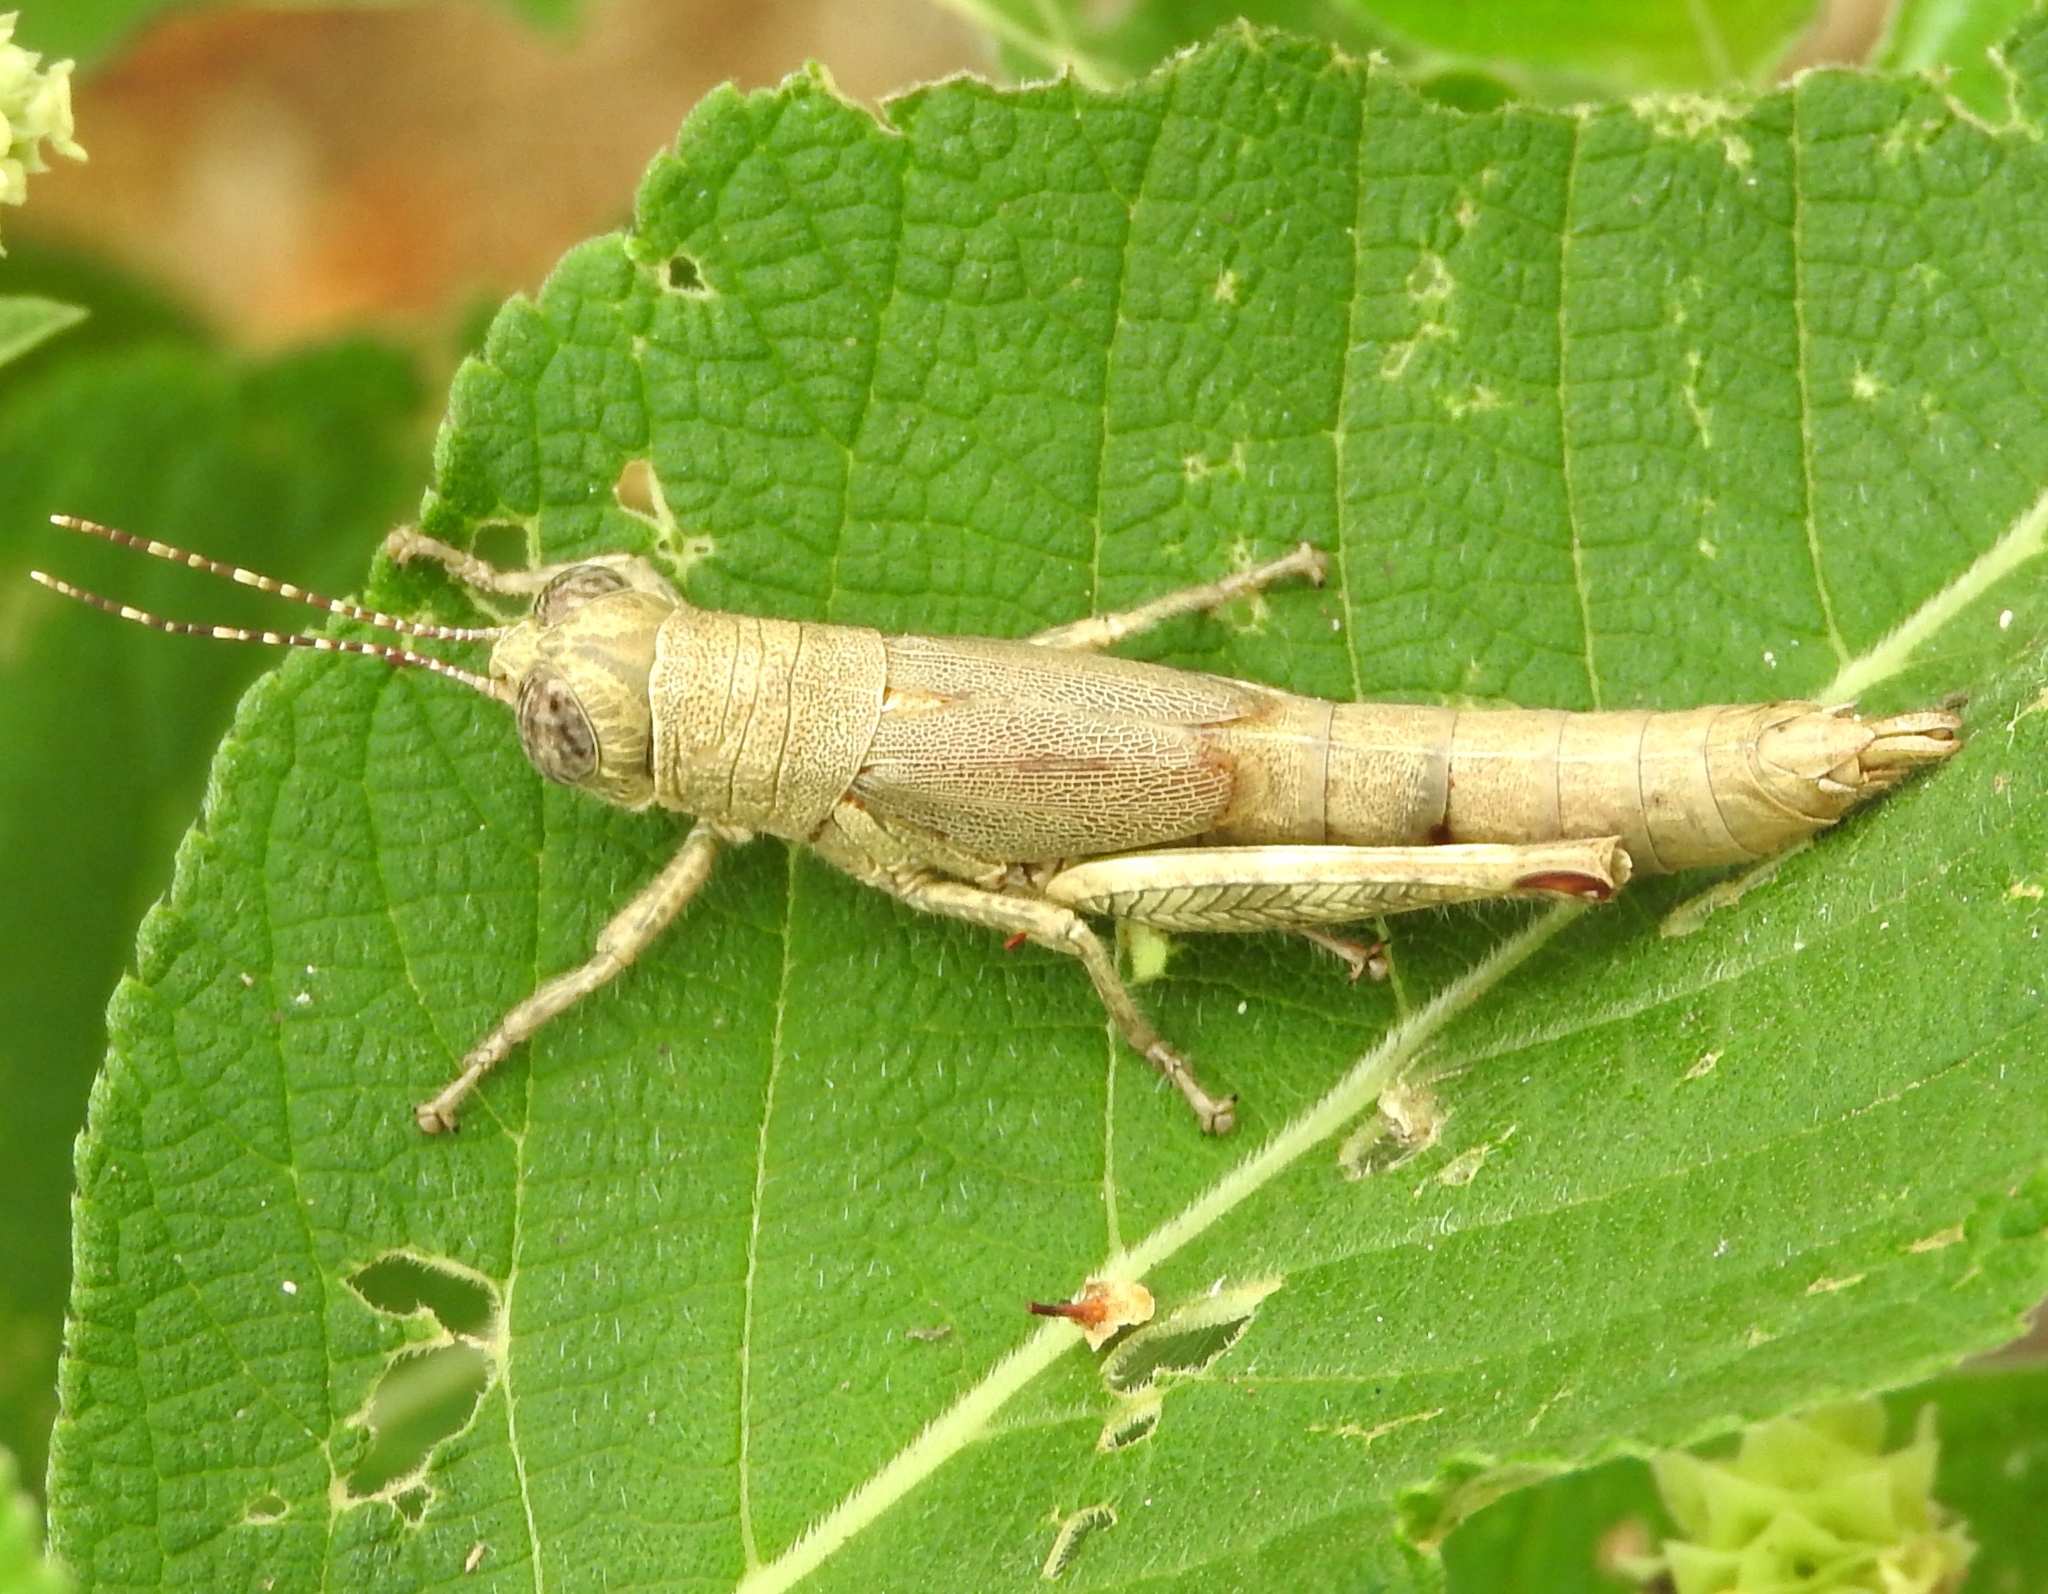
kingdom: Animalia
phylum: Arthropoda
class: Insecta
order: Orthoptera
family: Acrididae
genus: Proctolabus
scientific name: Proctolabus cerciatus
